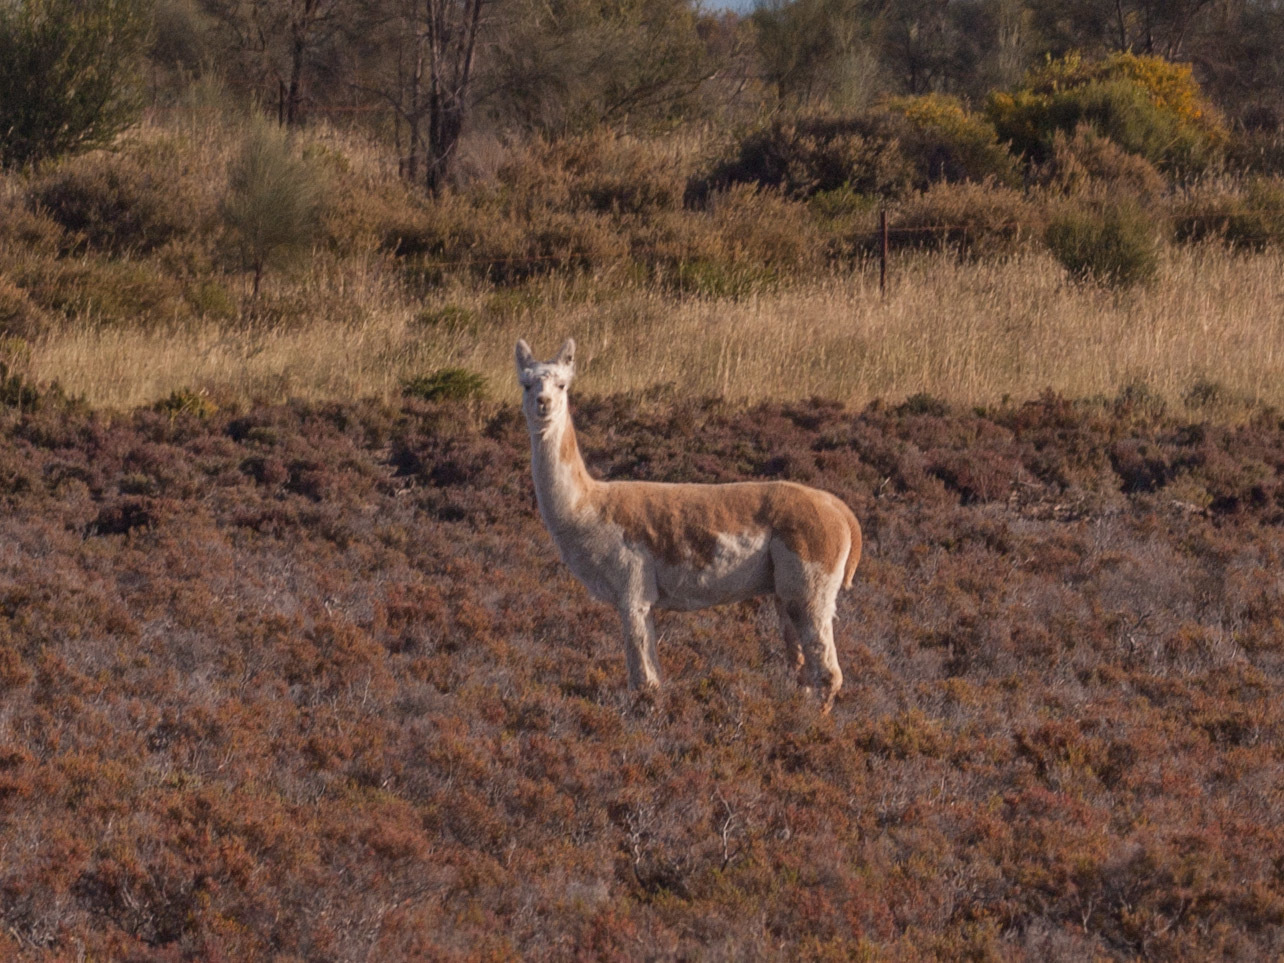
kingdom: Animalia
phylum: Chordata
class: Mammalia
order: Artiodactyla
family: Camelidae
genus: Vicugna
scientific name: Vicugna pacos
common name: Alpaca
